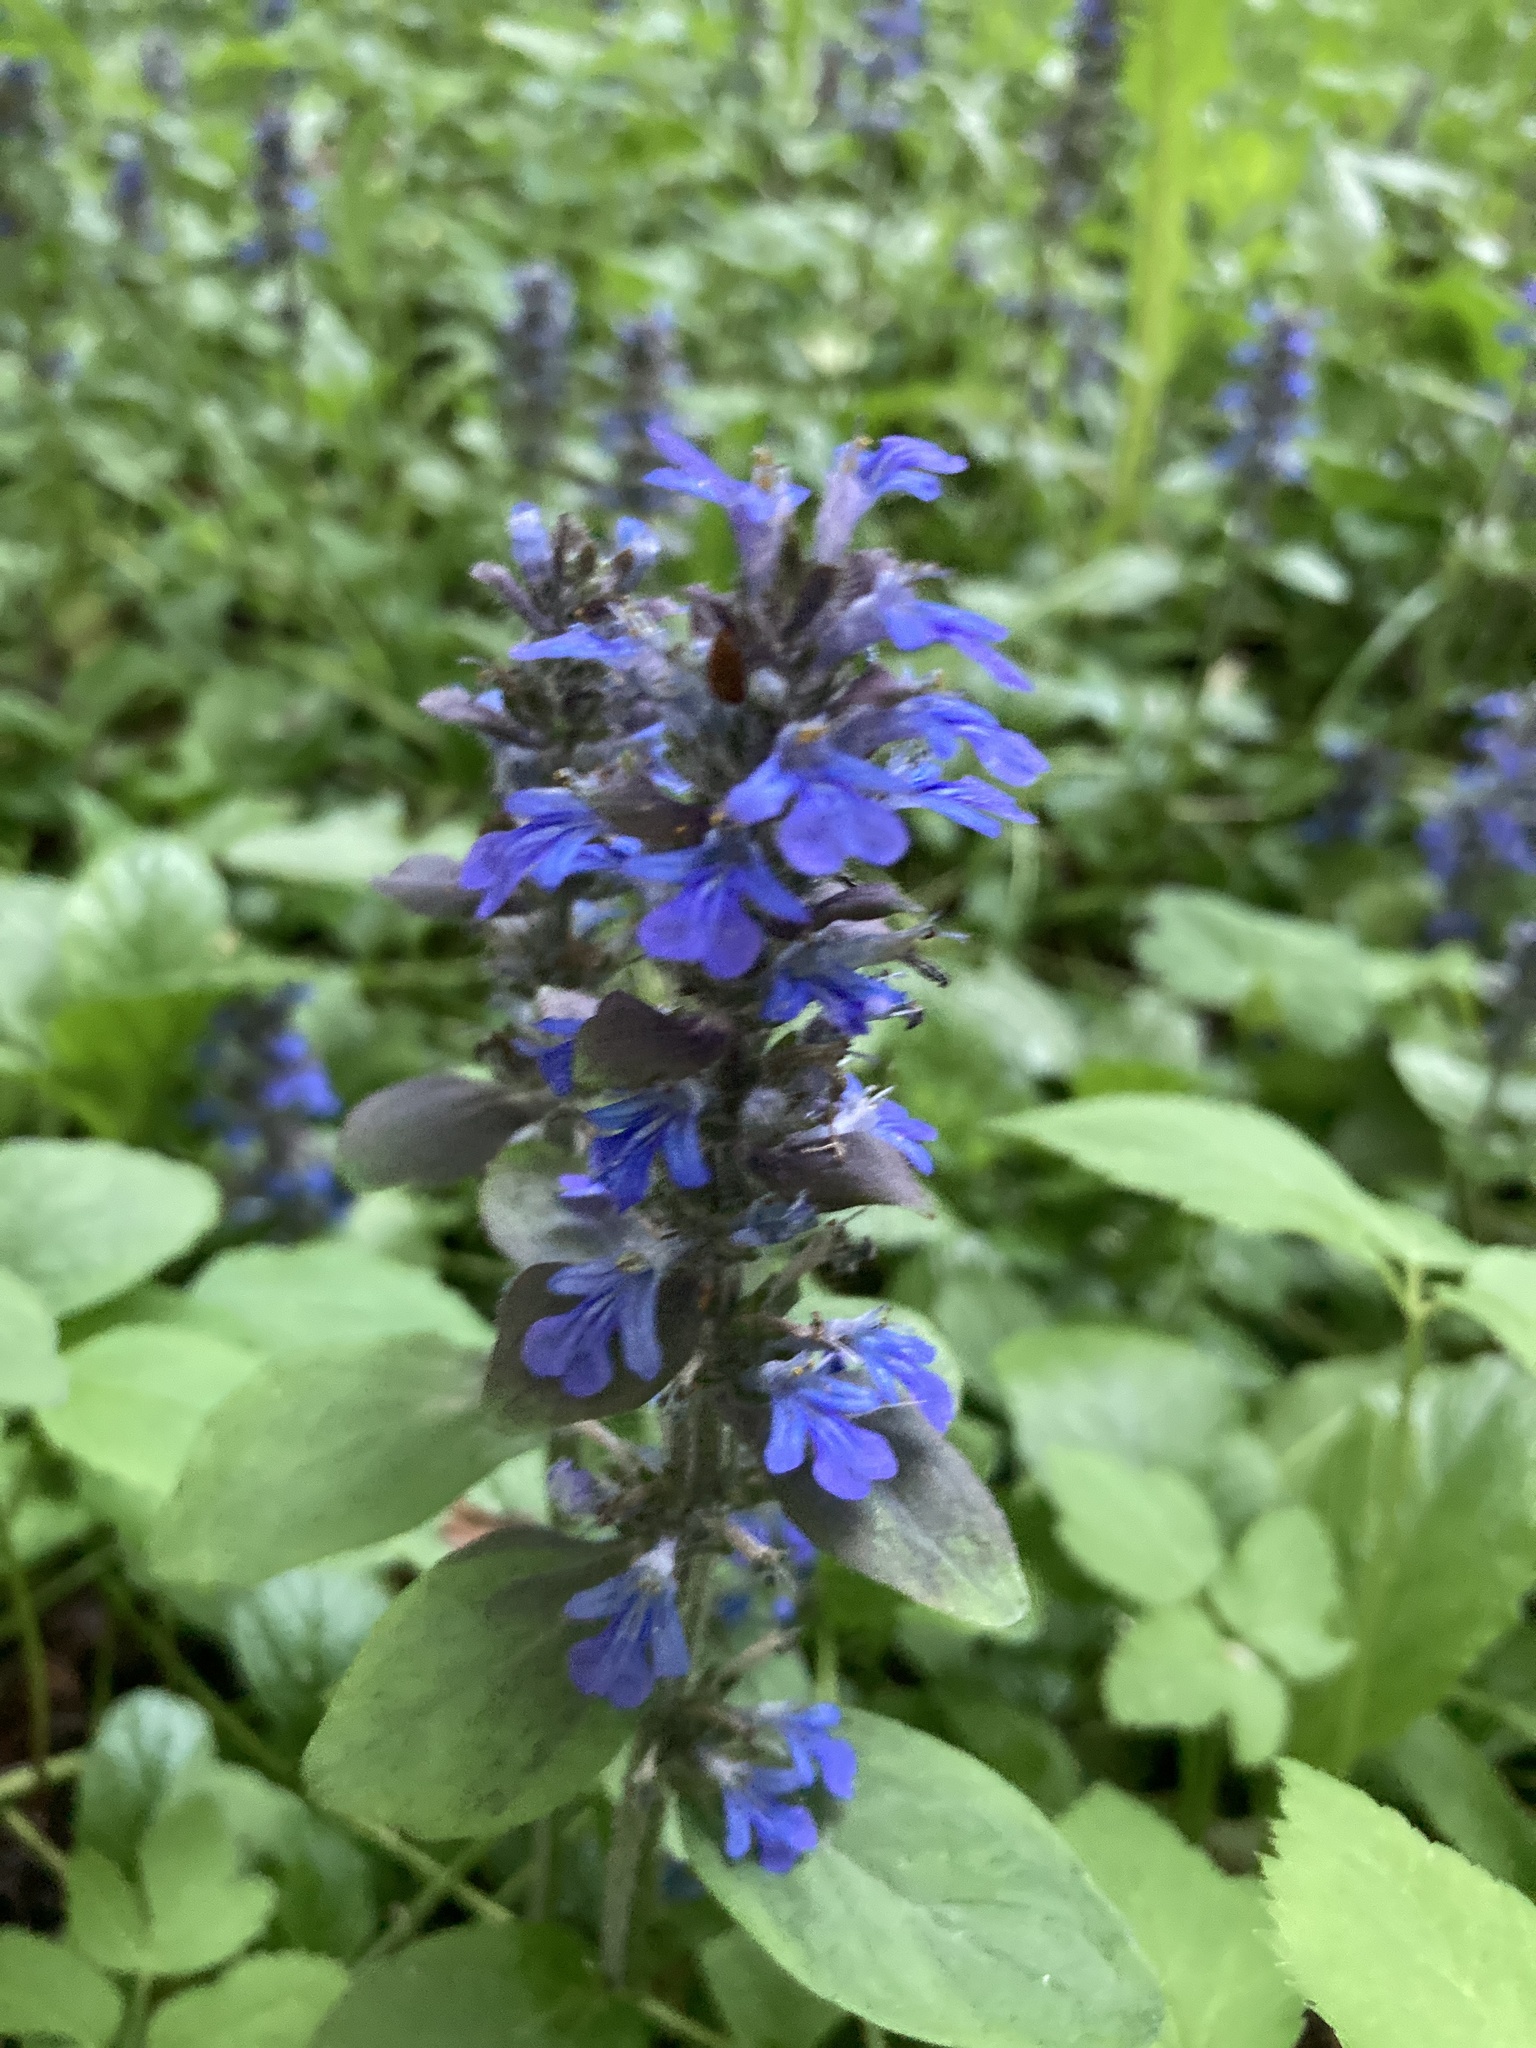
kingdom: Plantae
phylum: Tracheophyta
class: Magnoliopsida
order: Lamiales
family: Lamiaceae
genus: Ajuga
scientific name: Ajuga reptans
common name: Bugle
